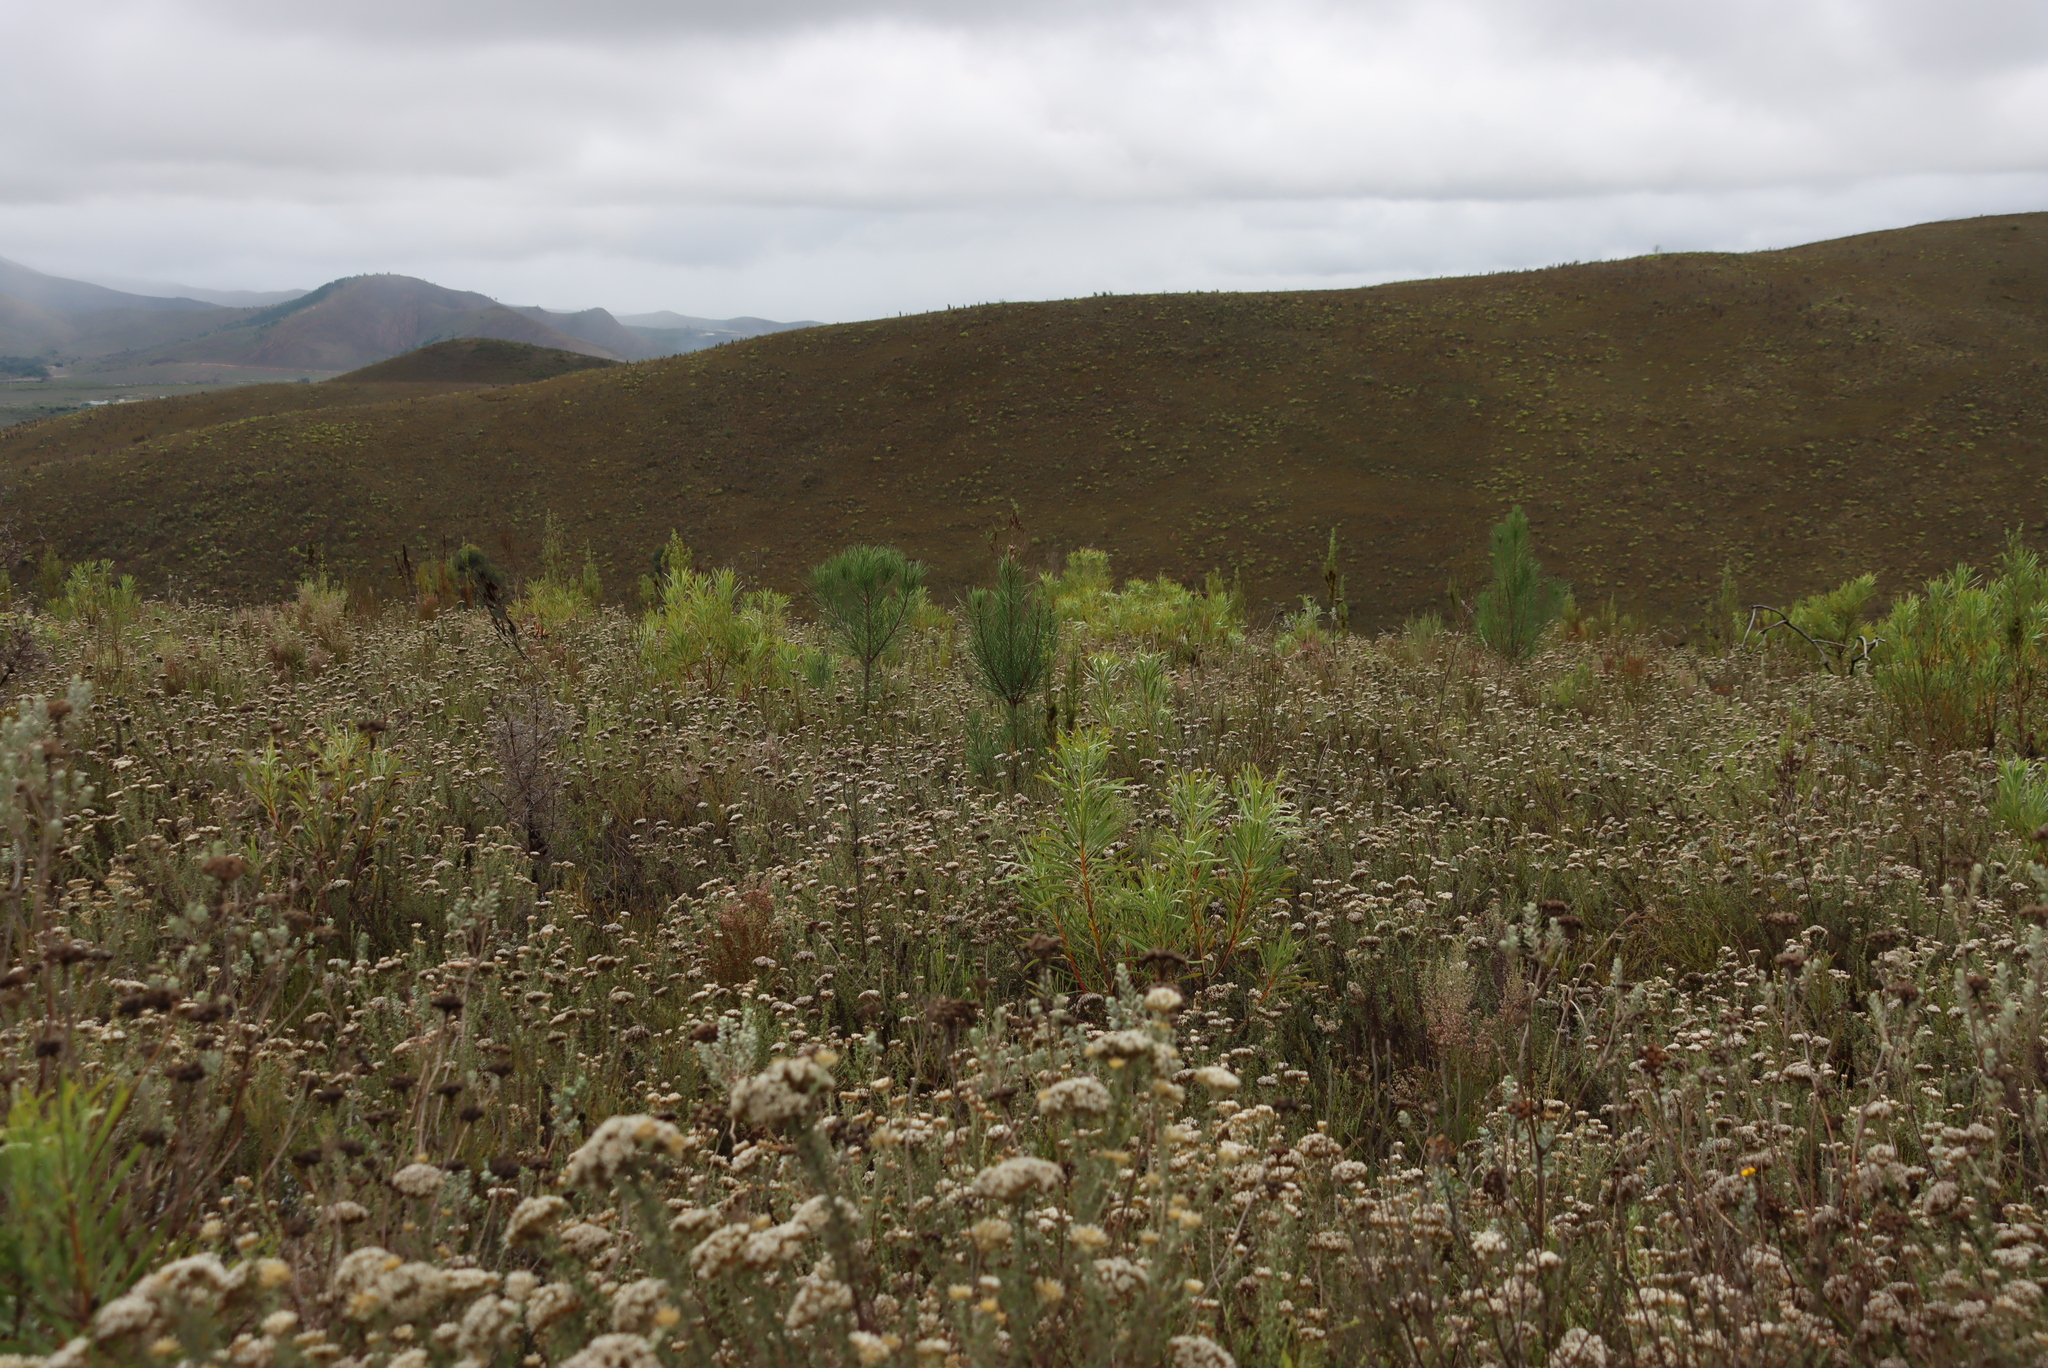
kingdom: Plantae
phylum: Tracheophyta
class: Pinopsida
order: Pinales
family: Pinaceae
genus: Pinus
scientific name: Pinus pinaster
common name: Maritime pine
